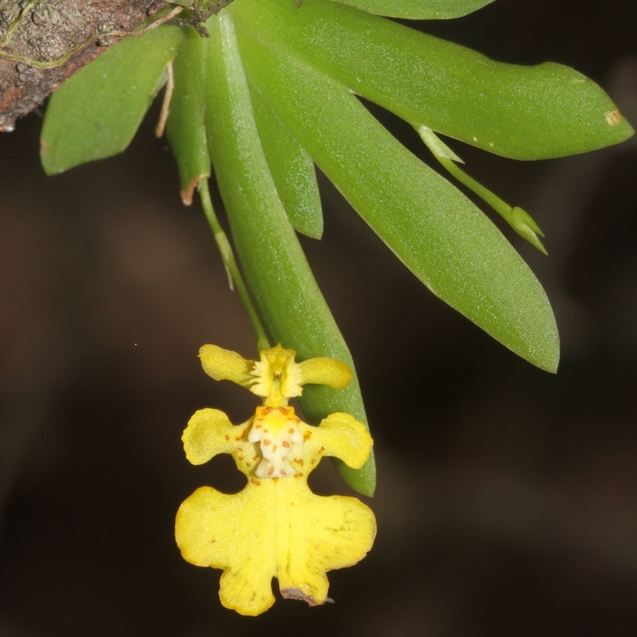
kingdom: Plantae
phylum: Tracheophyta
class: Liliopsida
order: Asparagales
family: Orchidaceae
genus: Erycina
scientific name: Erycina pusilla
